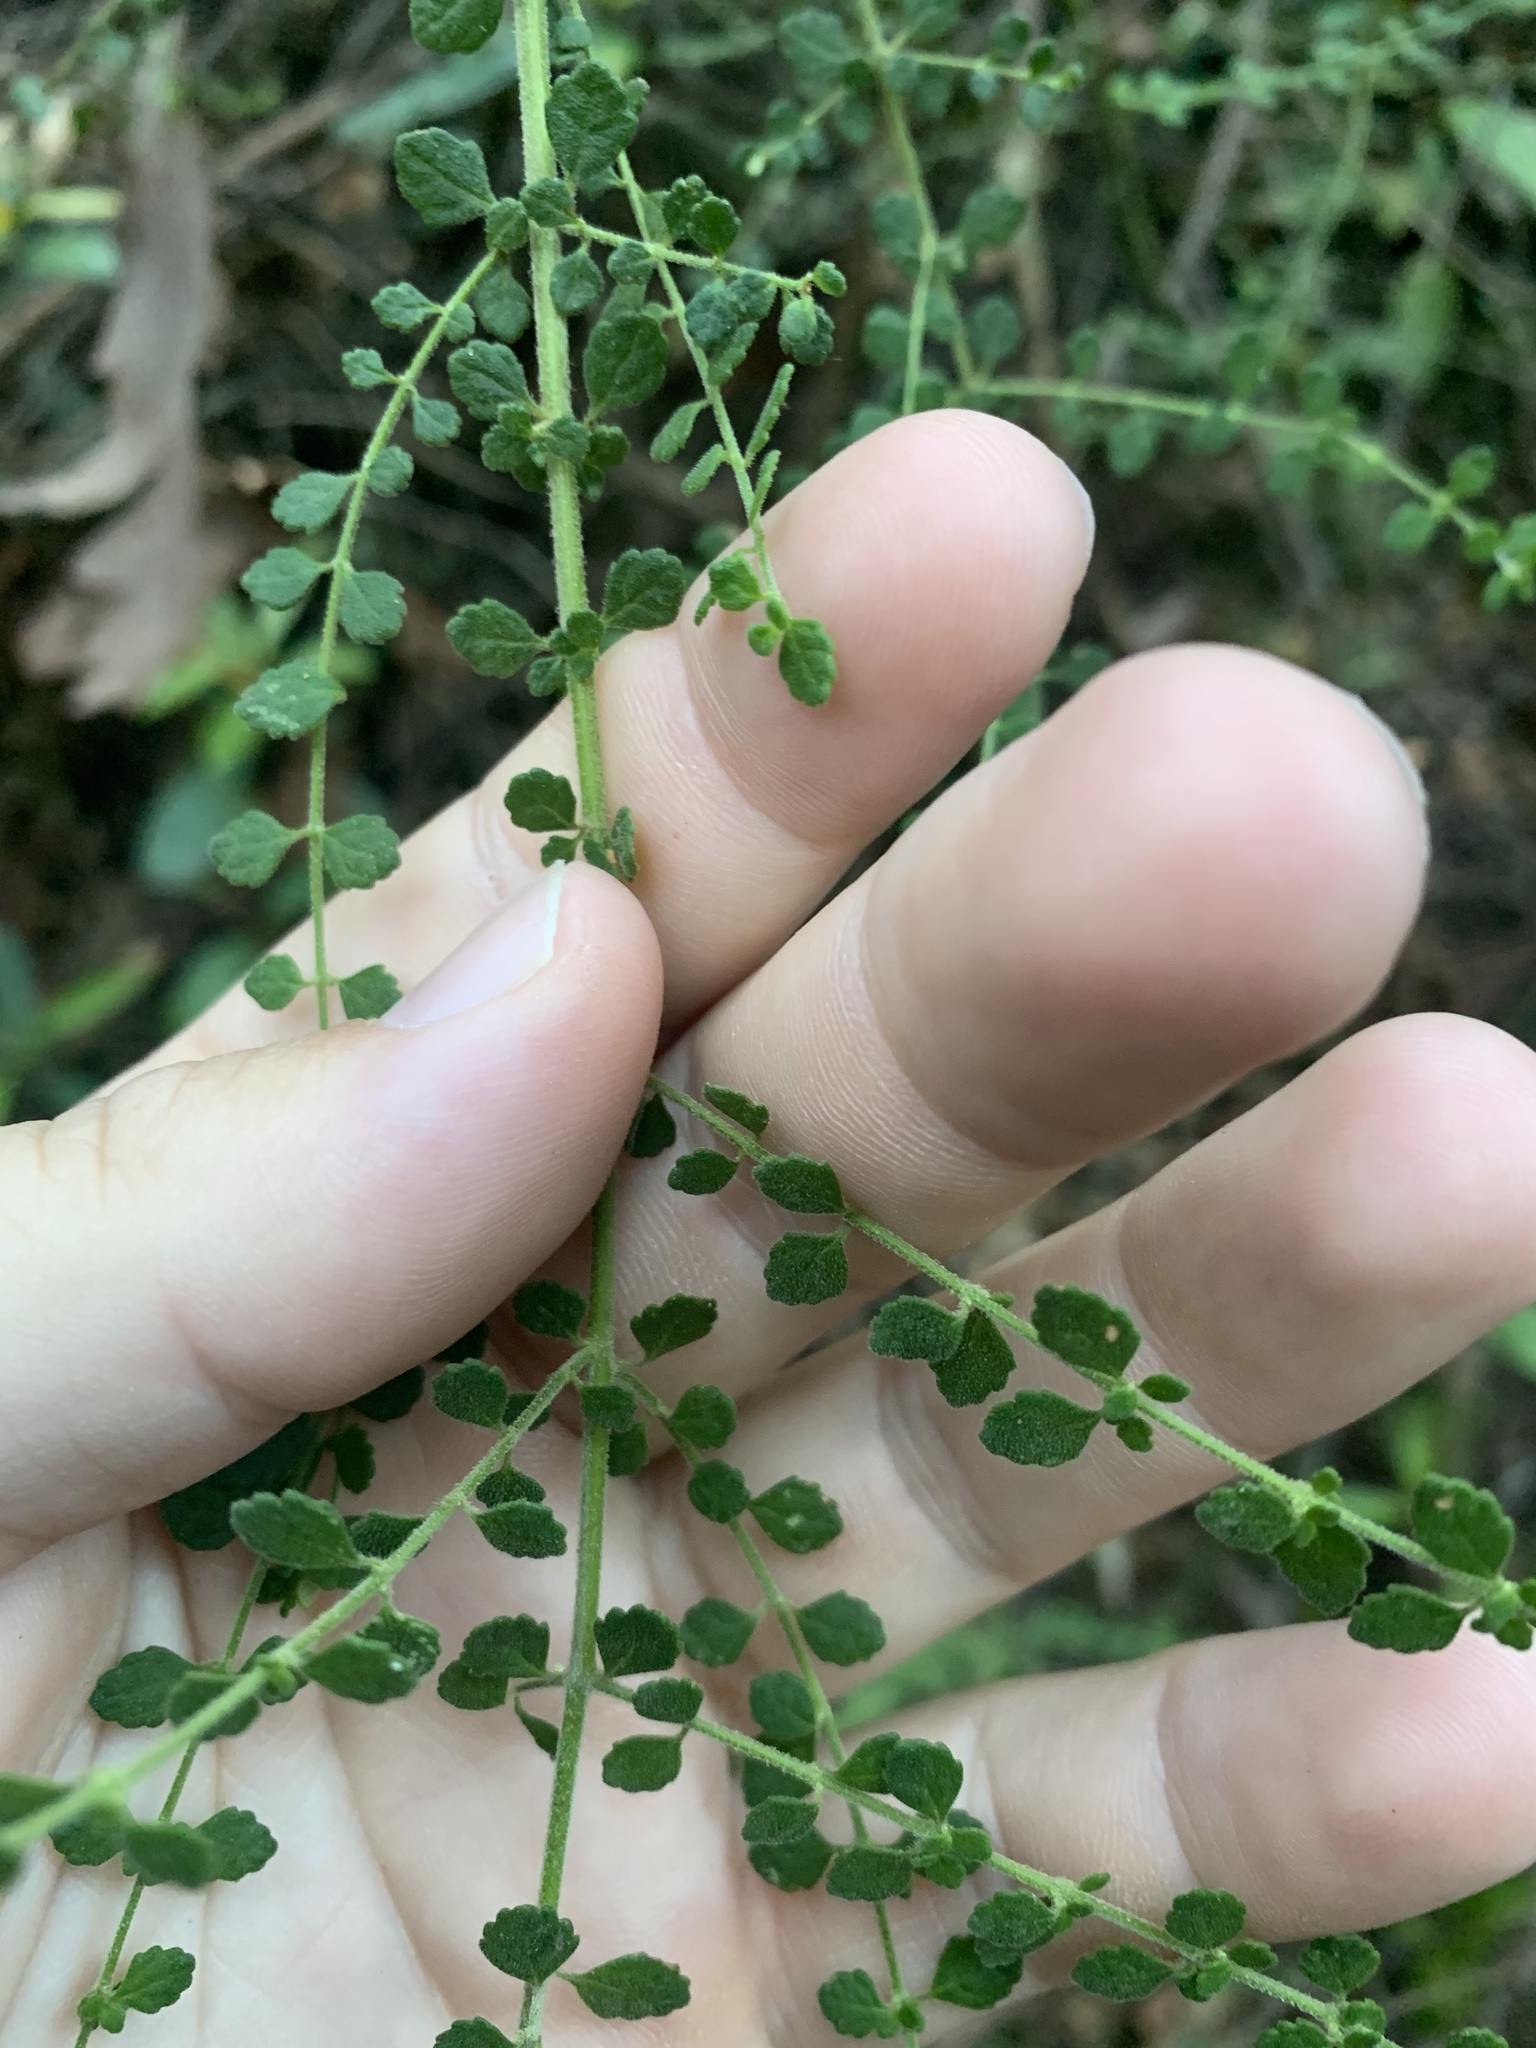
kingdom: Plantae
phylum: Tracheophyta
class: Magnoliopsida
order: Lamiales
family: Lamiaceae
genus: Prostanthera
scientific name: Prostanthera violacea
